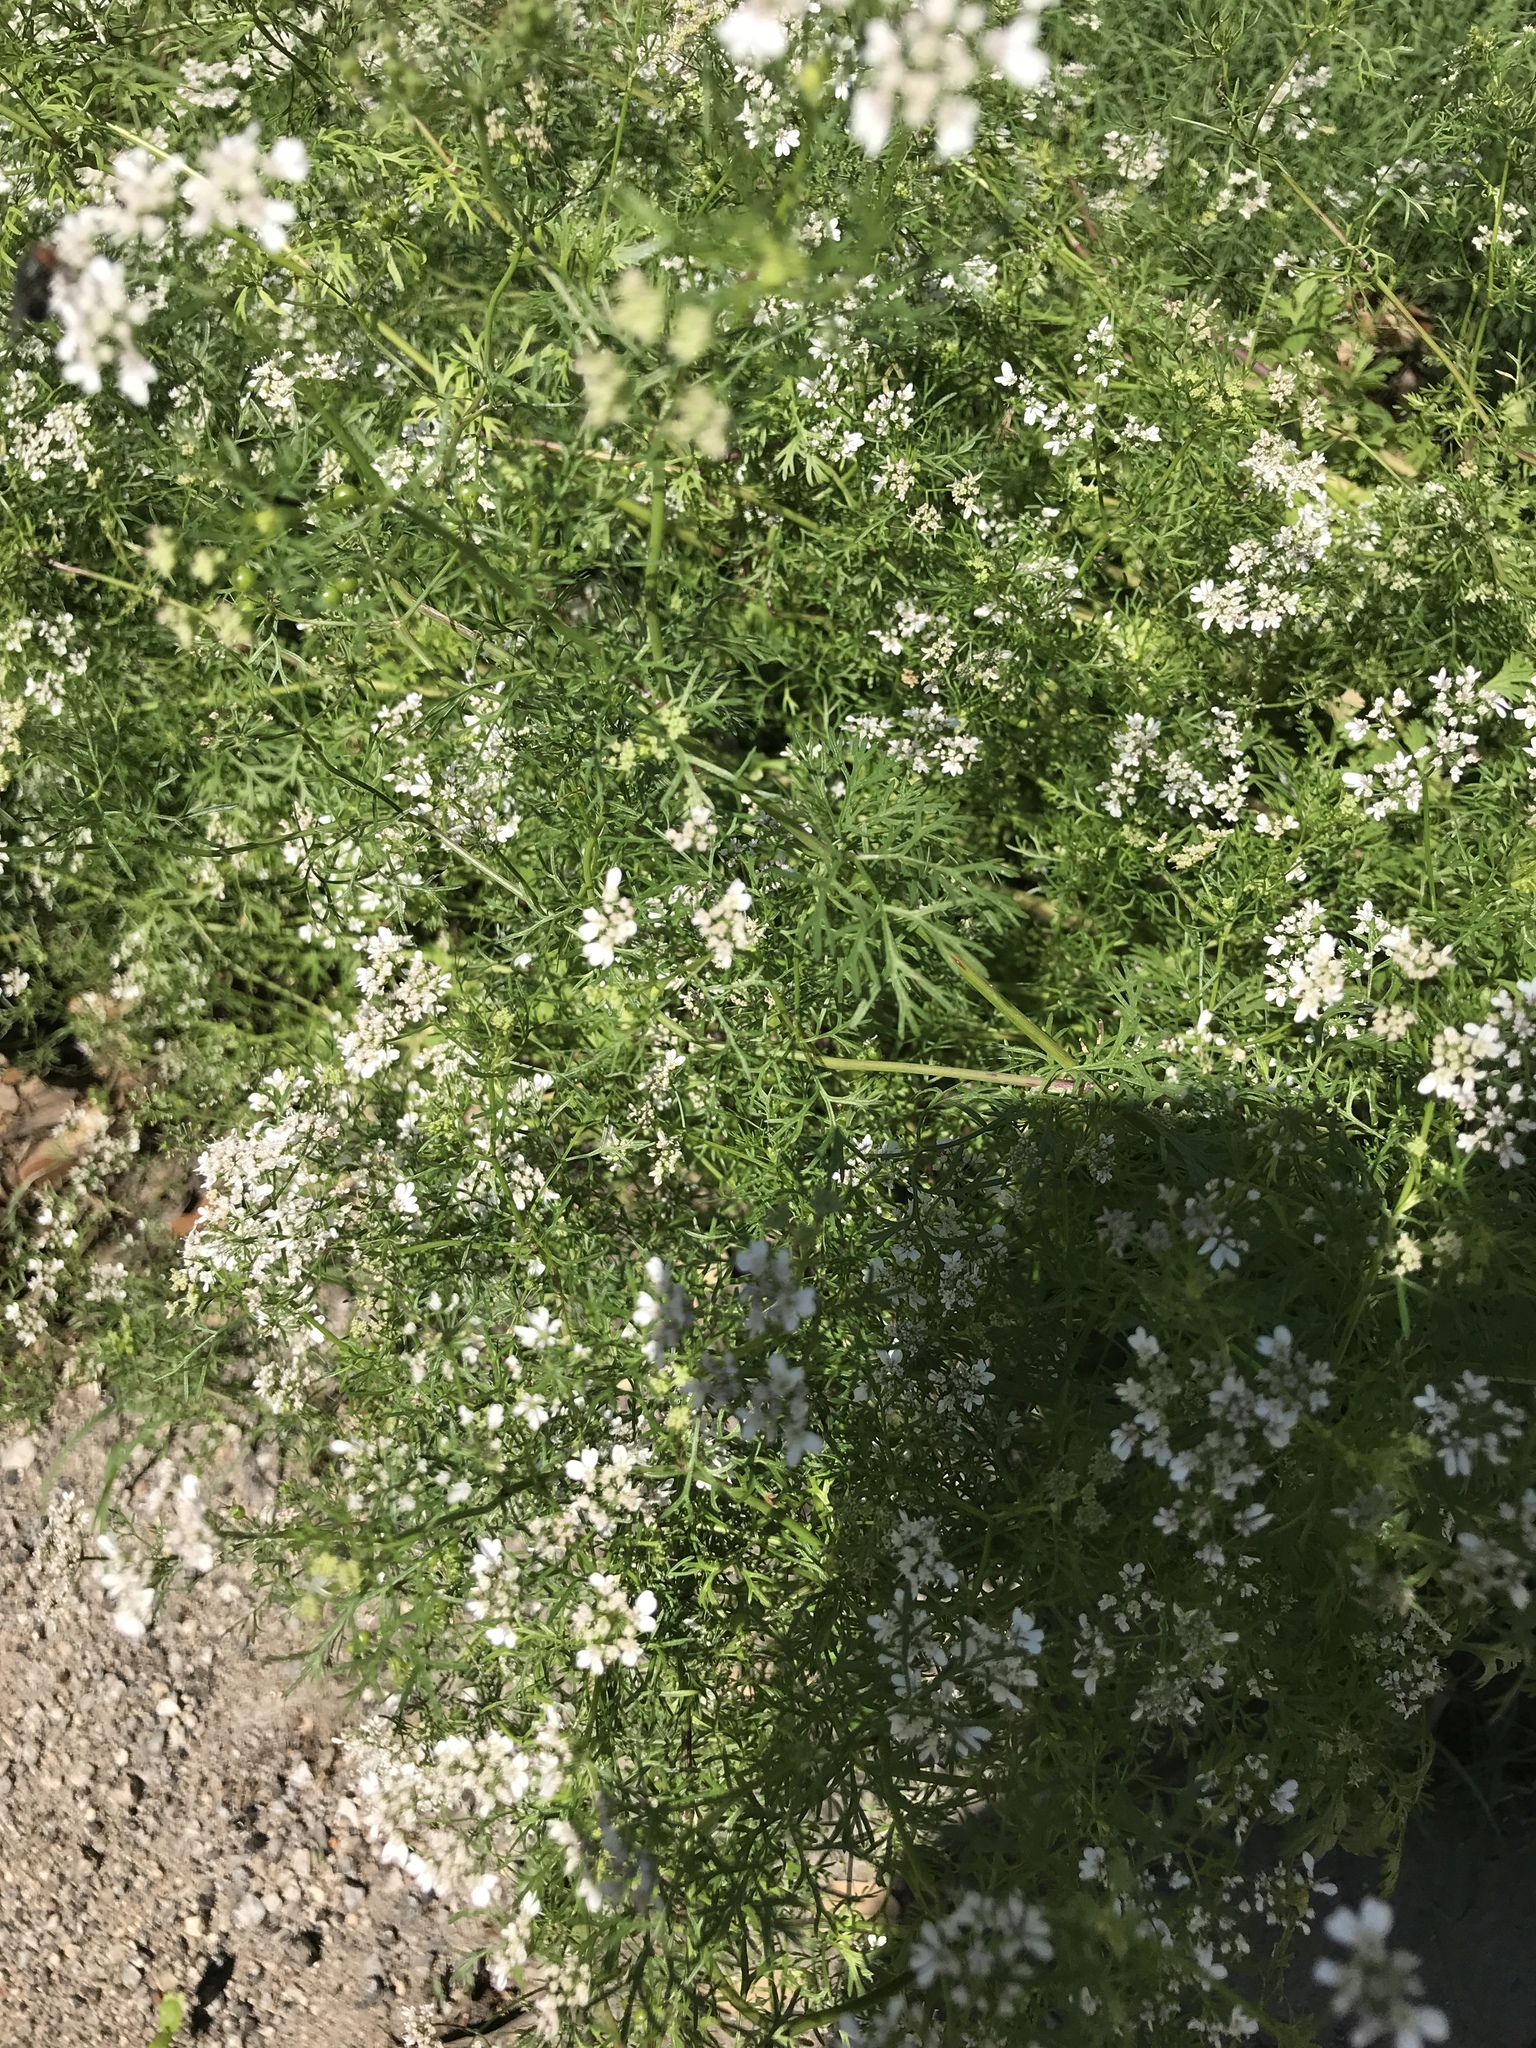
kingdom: Plantae
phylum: Tracheophyta
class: Magnoliopsida
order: Apiales
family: Apiaceae
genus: Torilis
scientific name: Torilis arvensis
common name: Spreading hedge-parsley
